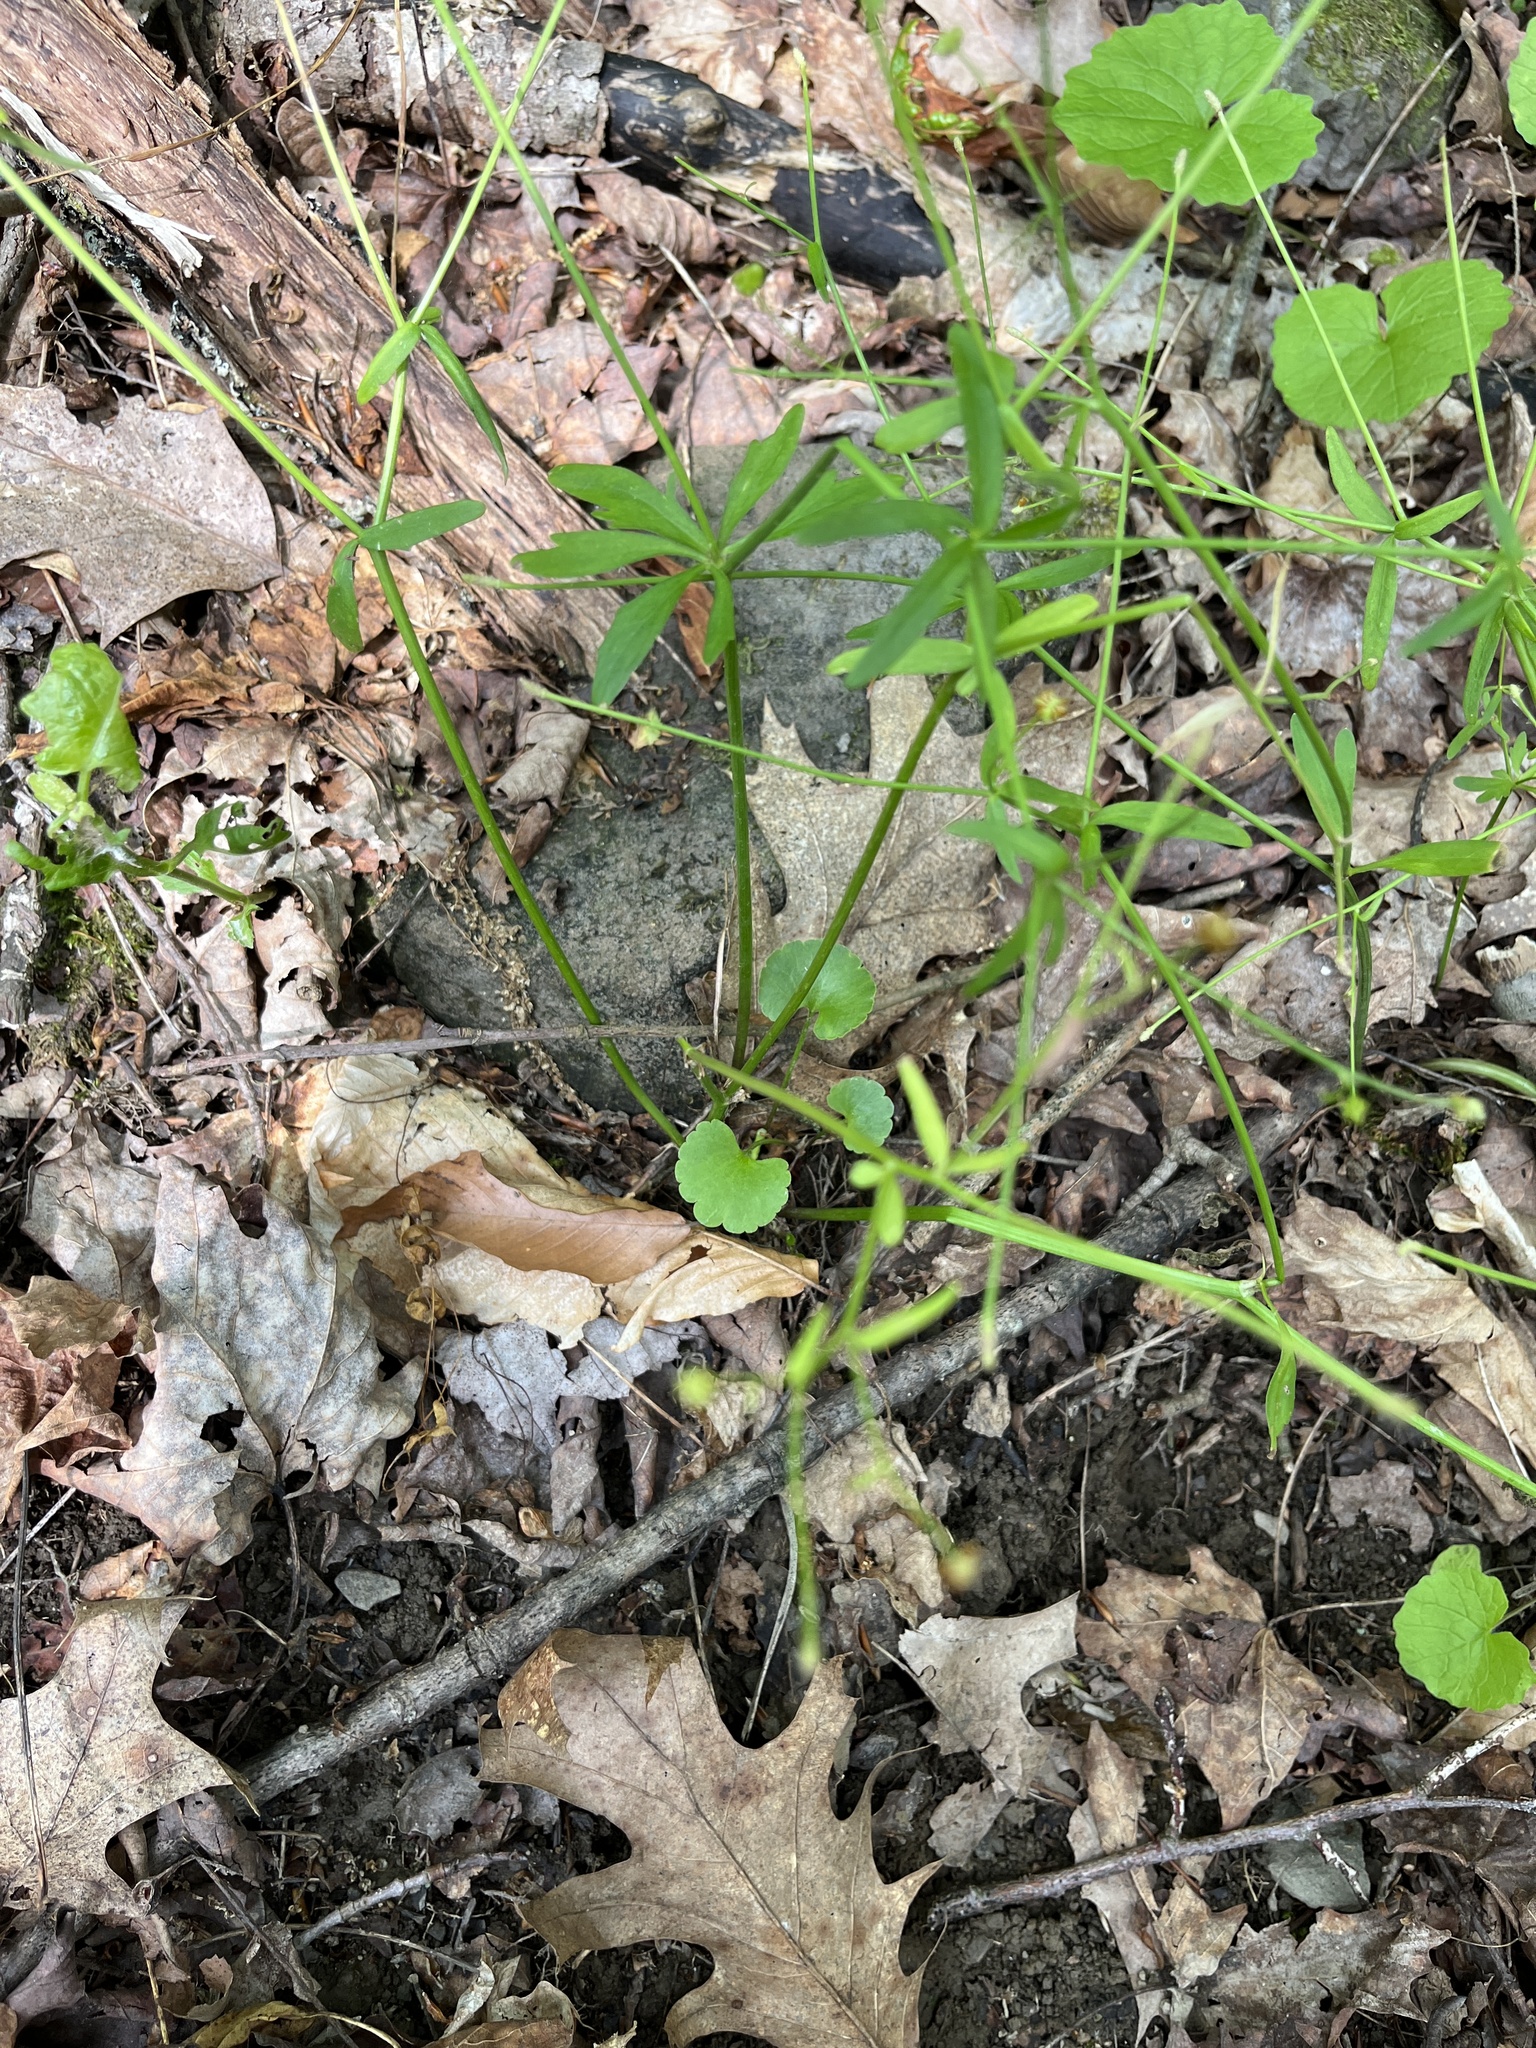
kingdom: Plantae
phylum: Tracheophyta
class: Magnoliopsida
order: Ranunculales
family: Ranunculaceae
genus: Ranunculus
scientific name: Ranunculus abortivus
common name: Early wood buttercup
